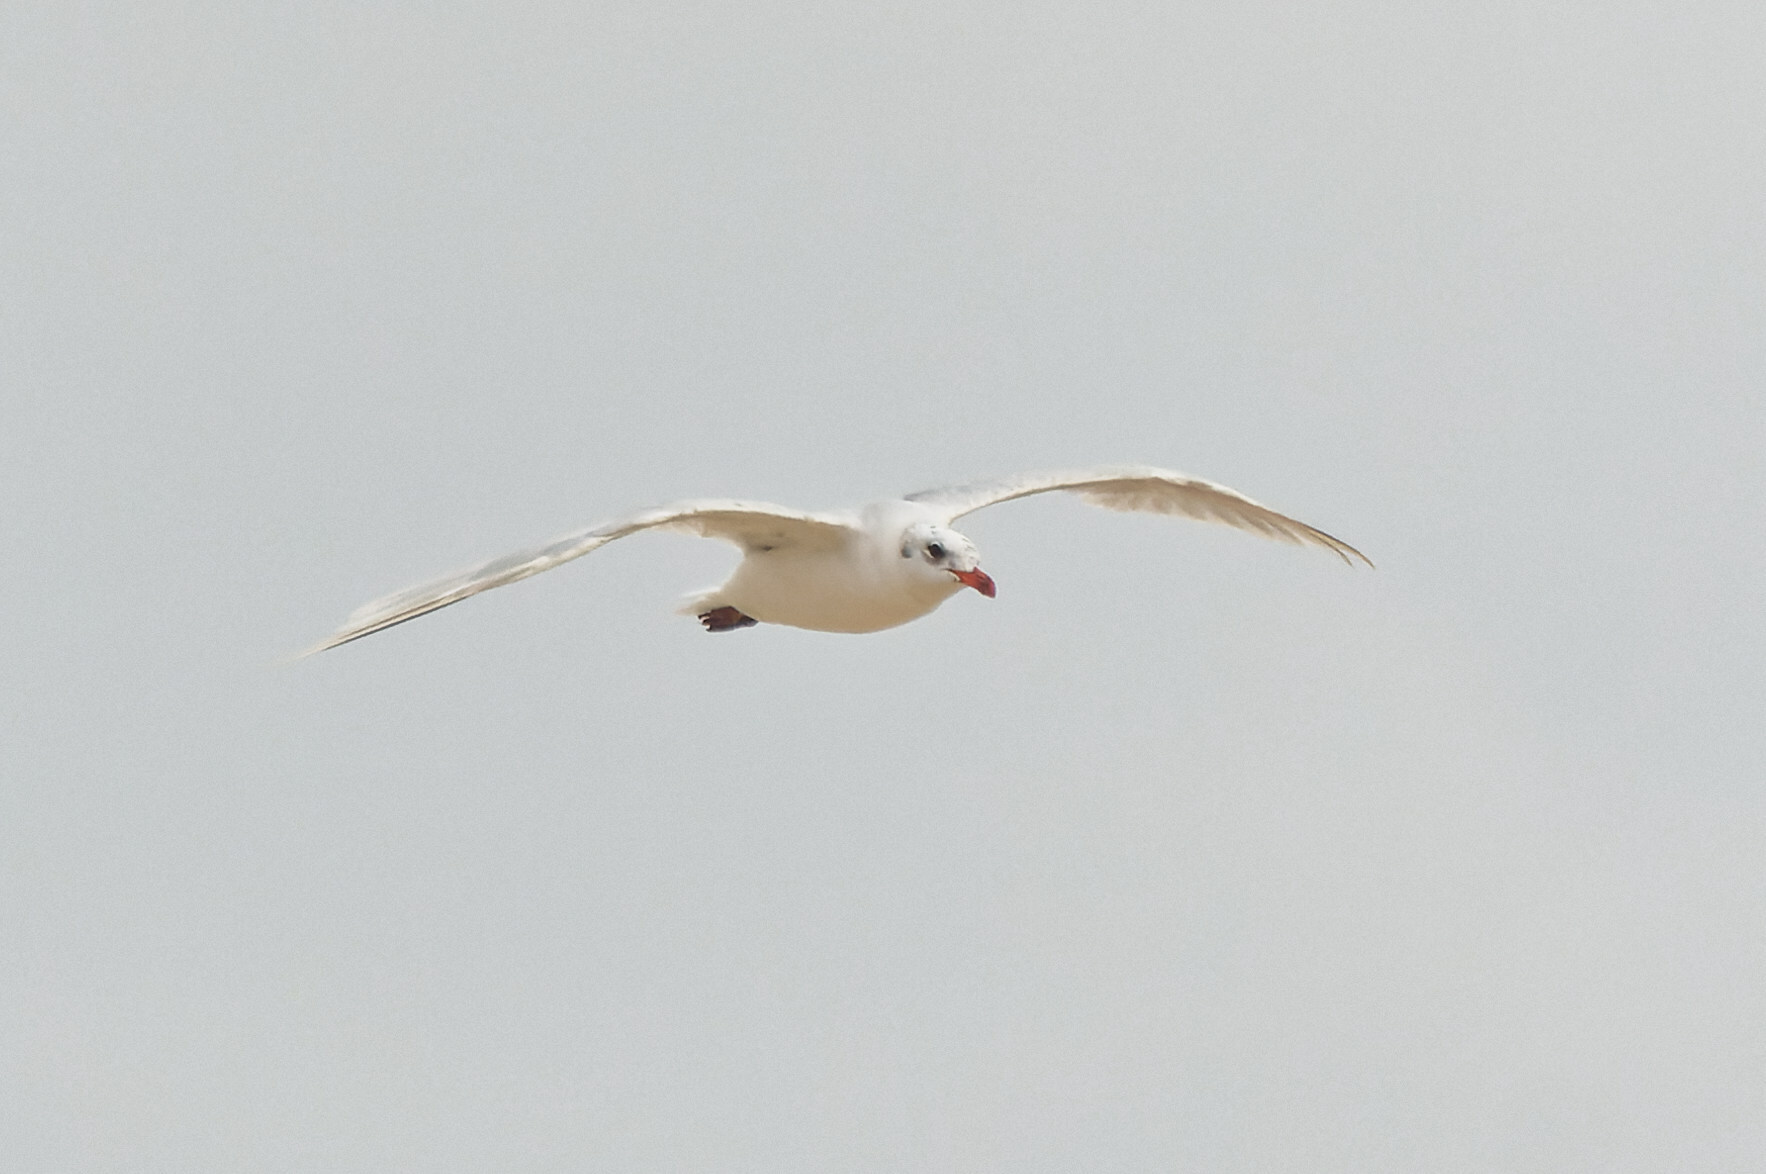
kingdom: Animalia
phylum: Chordata
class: Aves
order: Charadriiformes
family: Laridae
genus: Ichthyaetus
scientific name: Ichthyaetus melanocephalus
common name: Mediterranean gull
